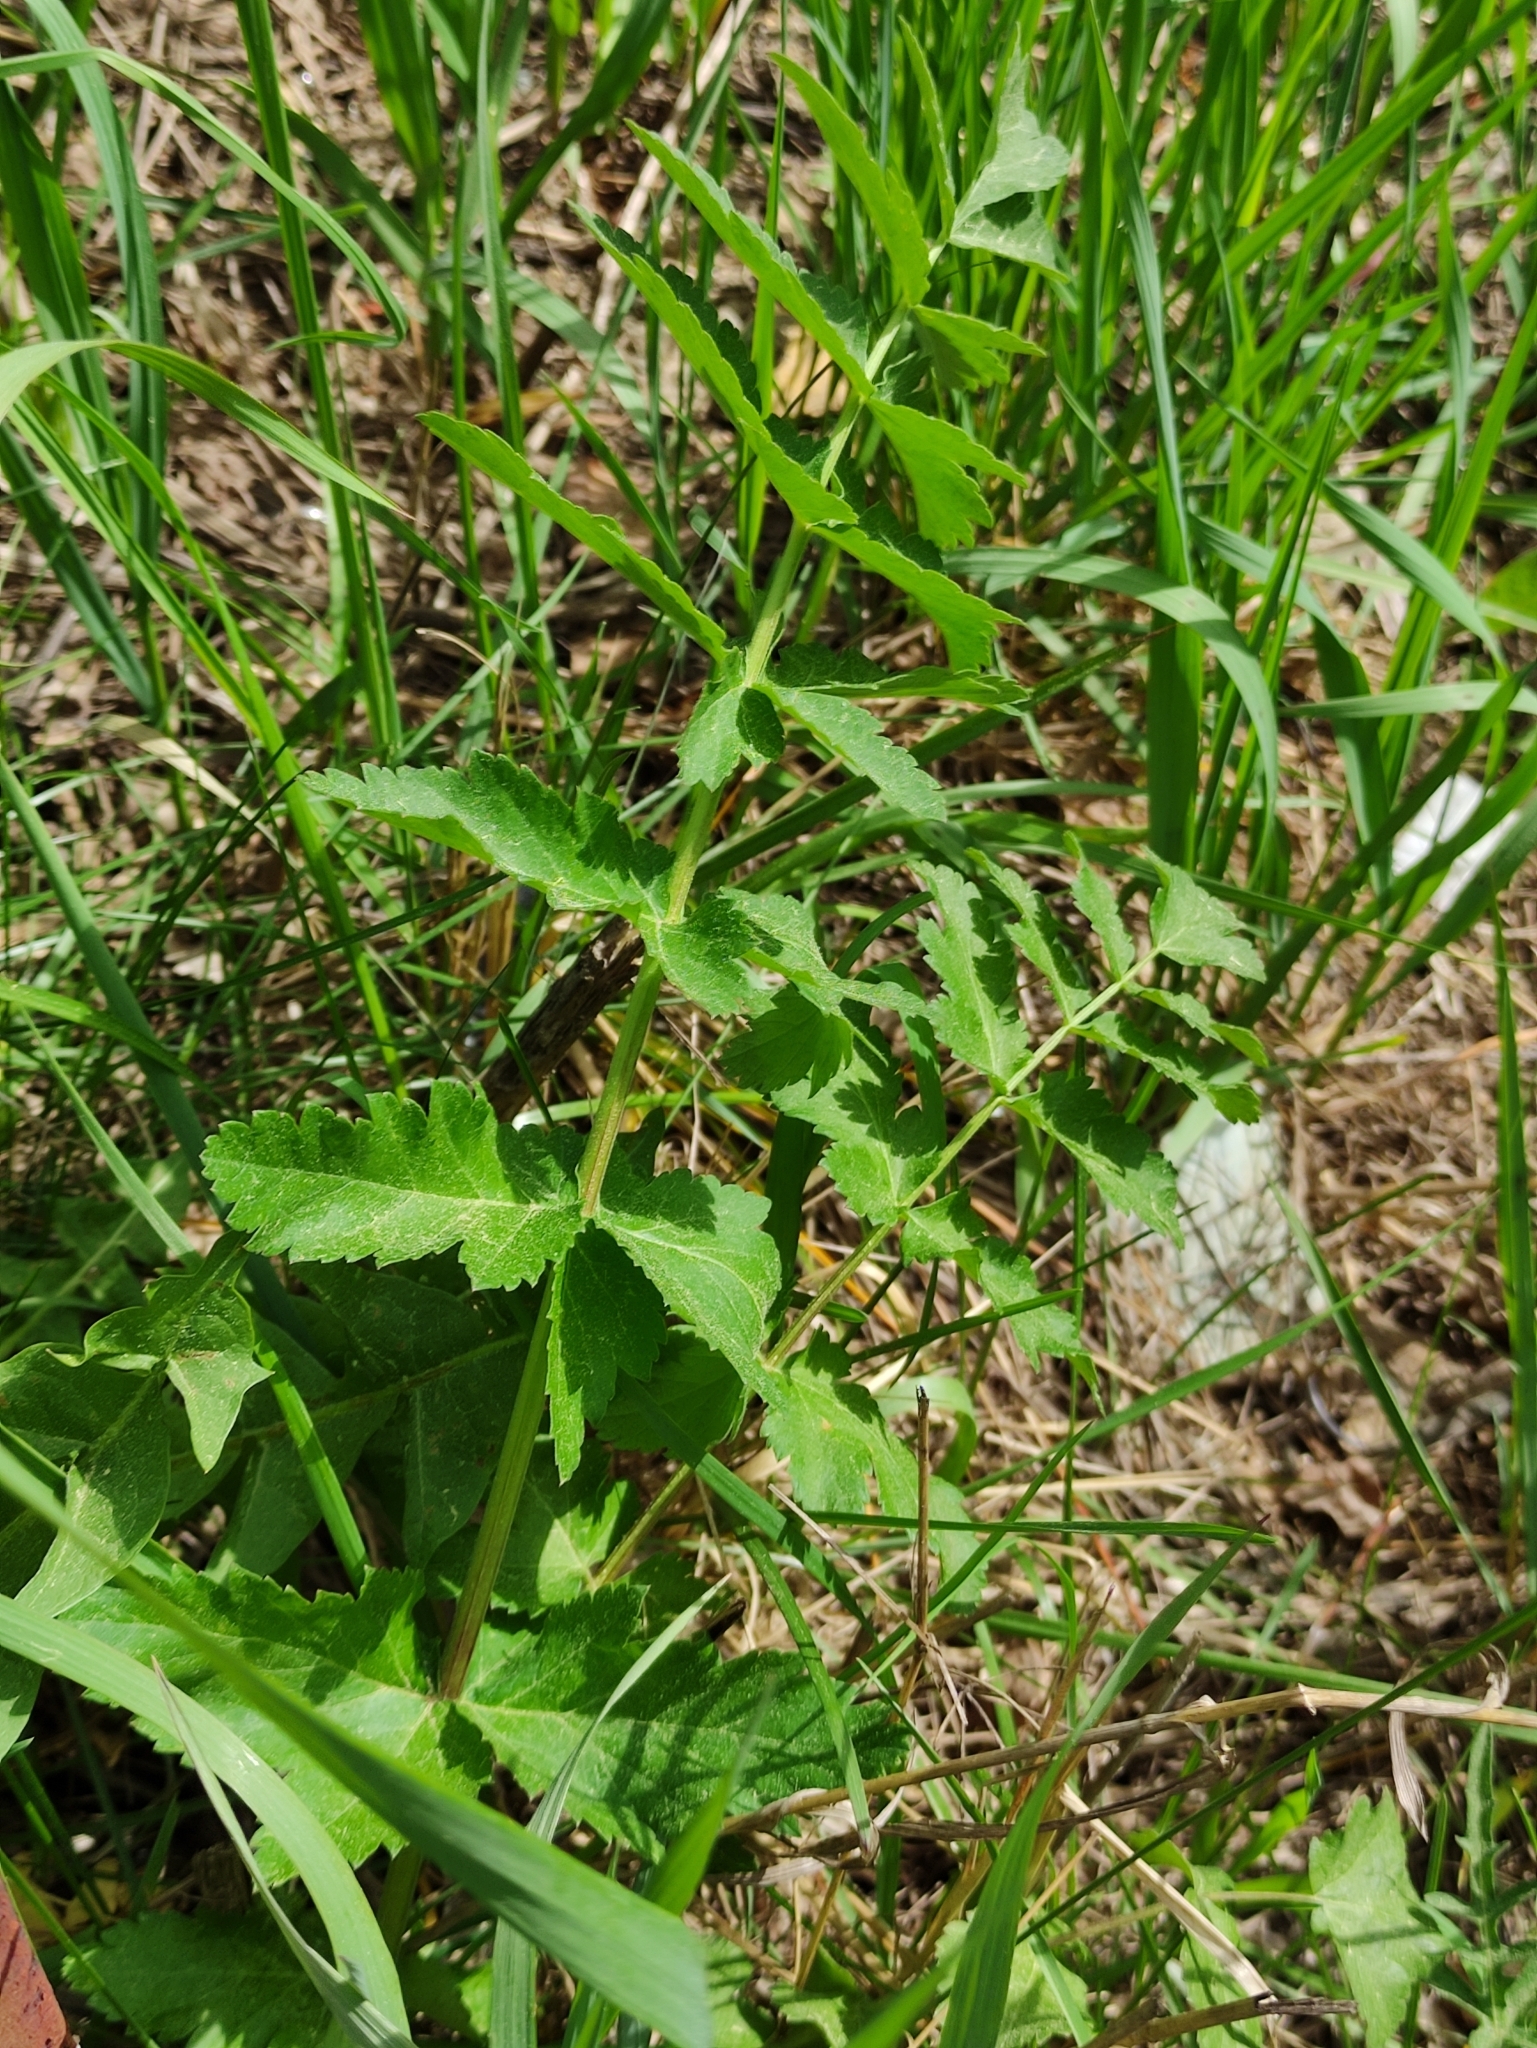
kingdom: Plantae
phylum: Tracheophyta
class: Magnoliopsida
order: Apiales
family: Apiaceae
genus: Pastinaca
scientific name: Pastinaca sativa
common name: Wild parsnip
